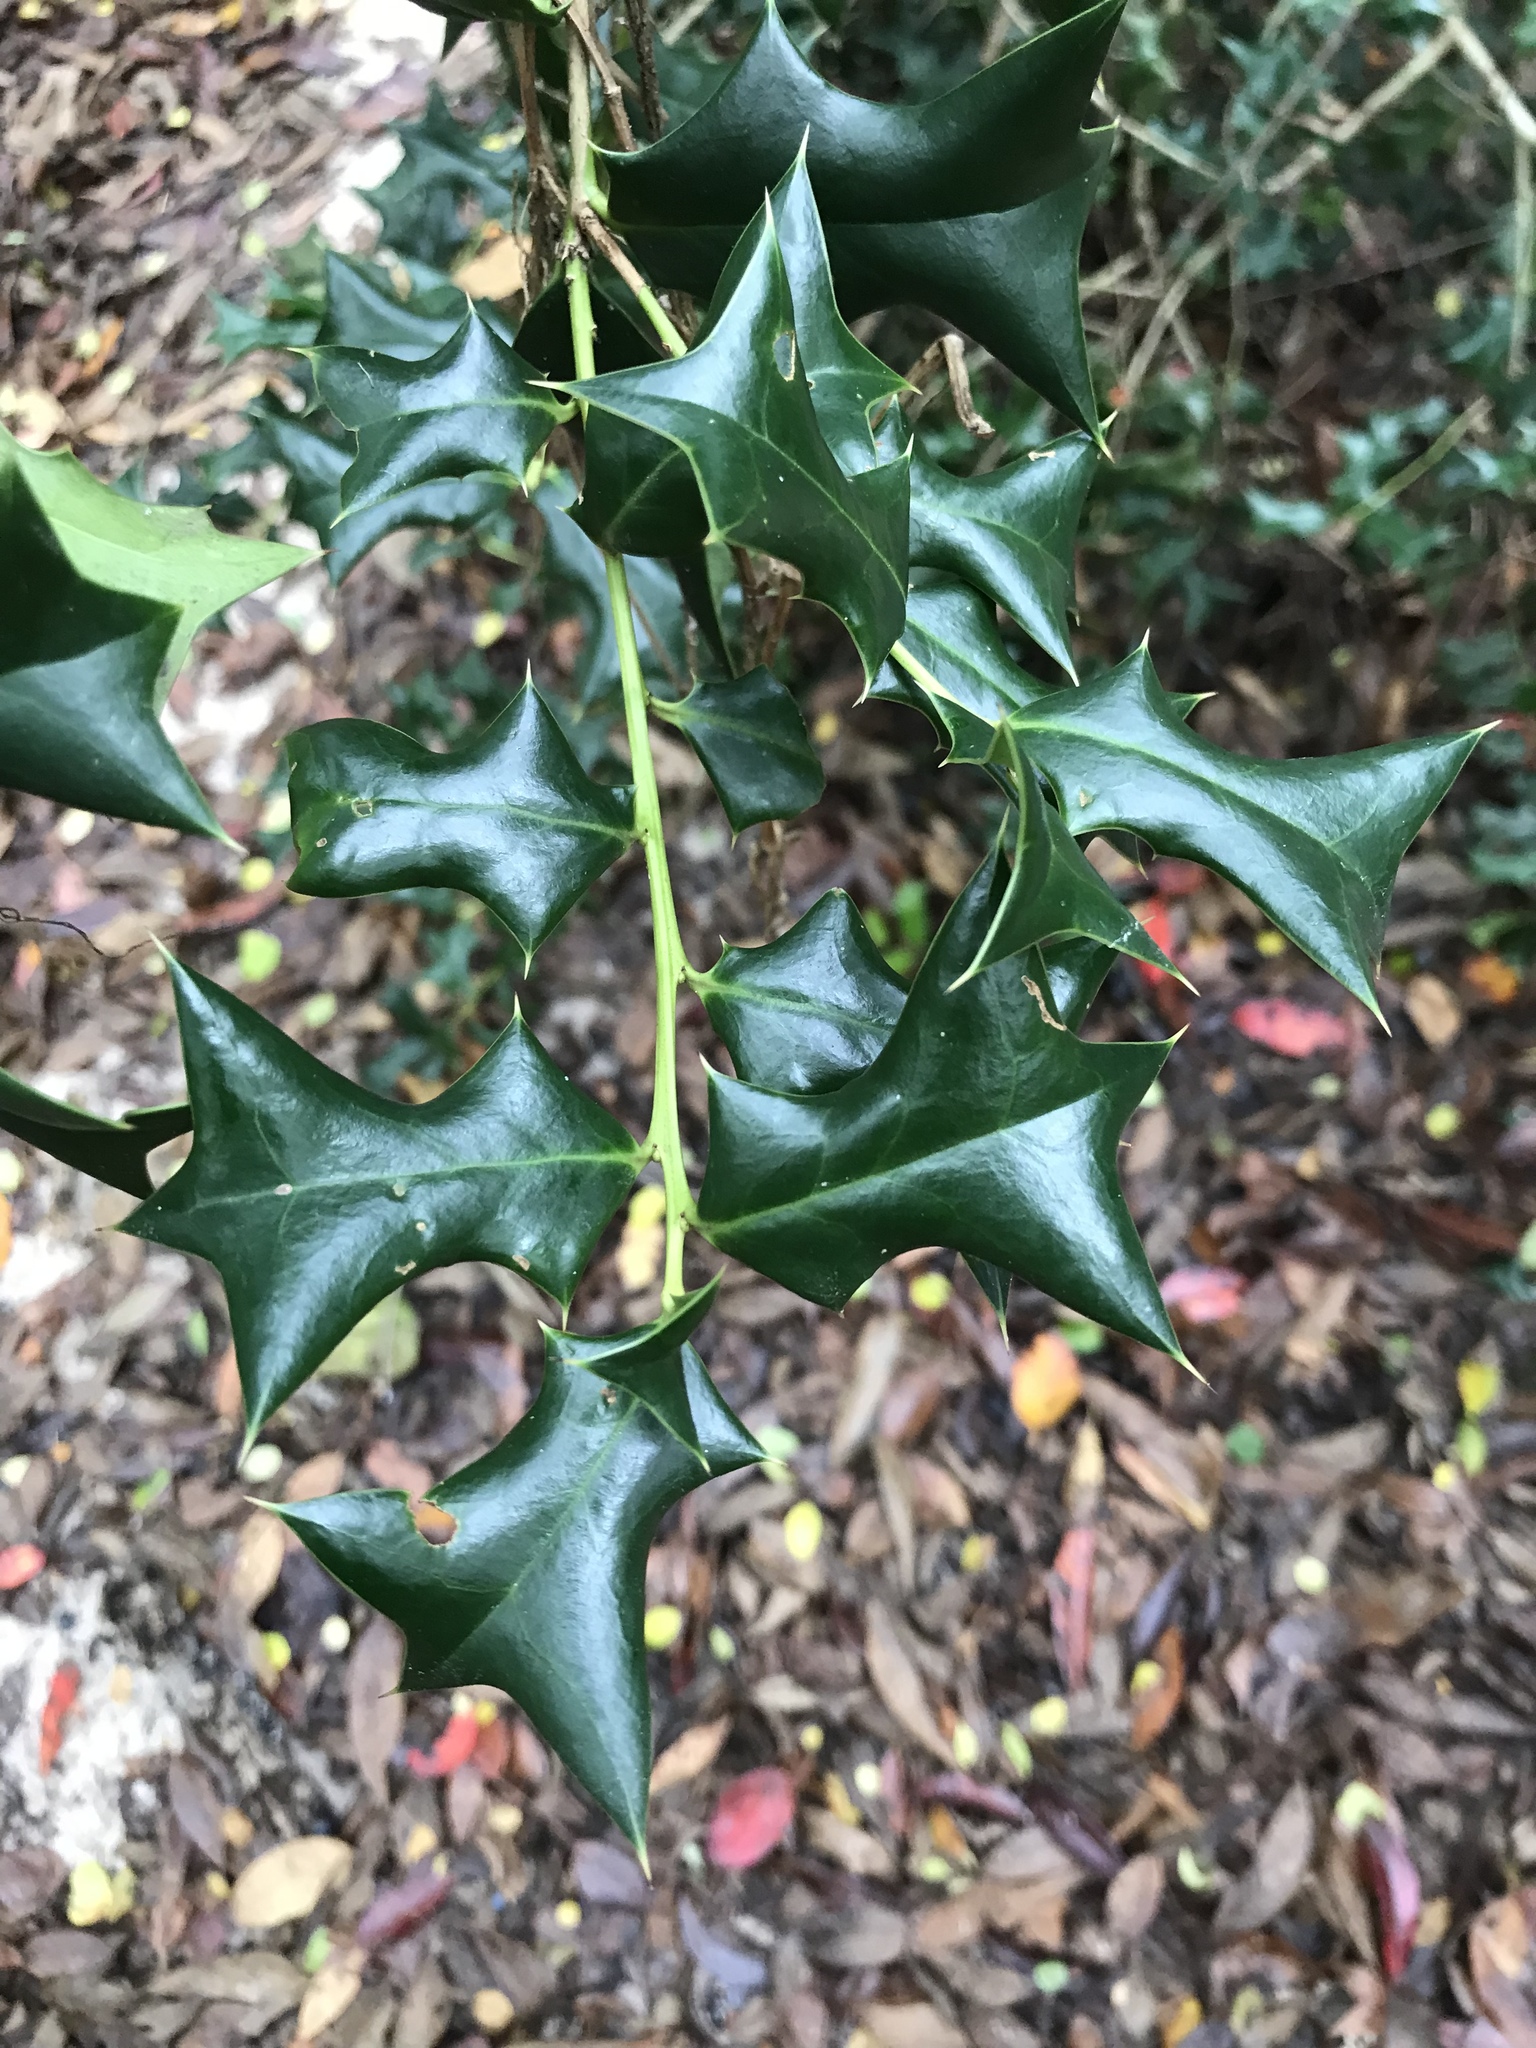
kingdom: Plantae
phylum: Tracheophyta
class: Magnoliopsida
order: Aquifoliales
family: Aquifoliaceae
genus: Ilex
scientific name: Ilex opaca
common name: American holly
